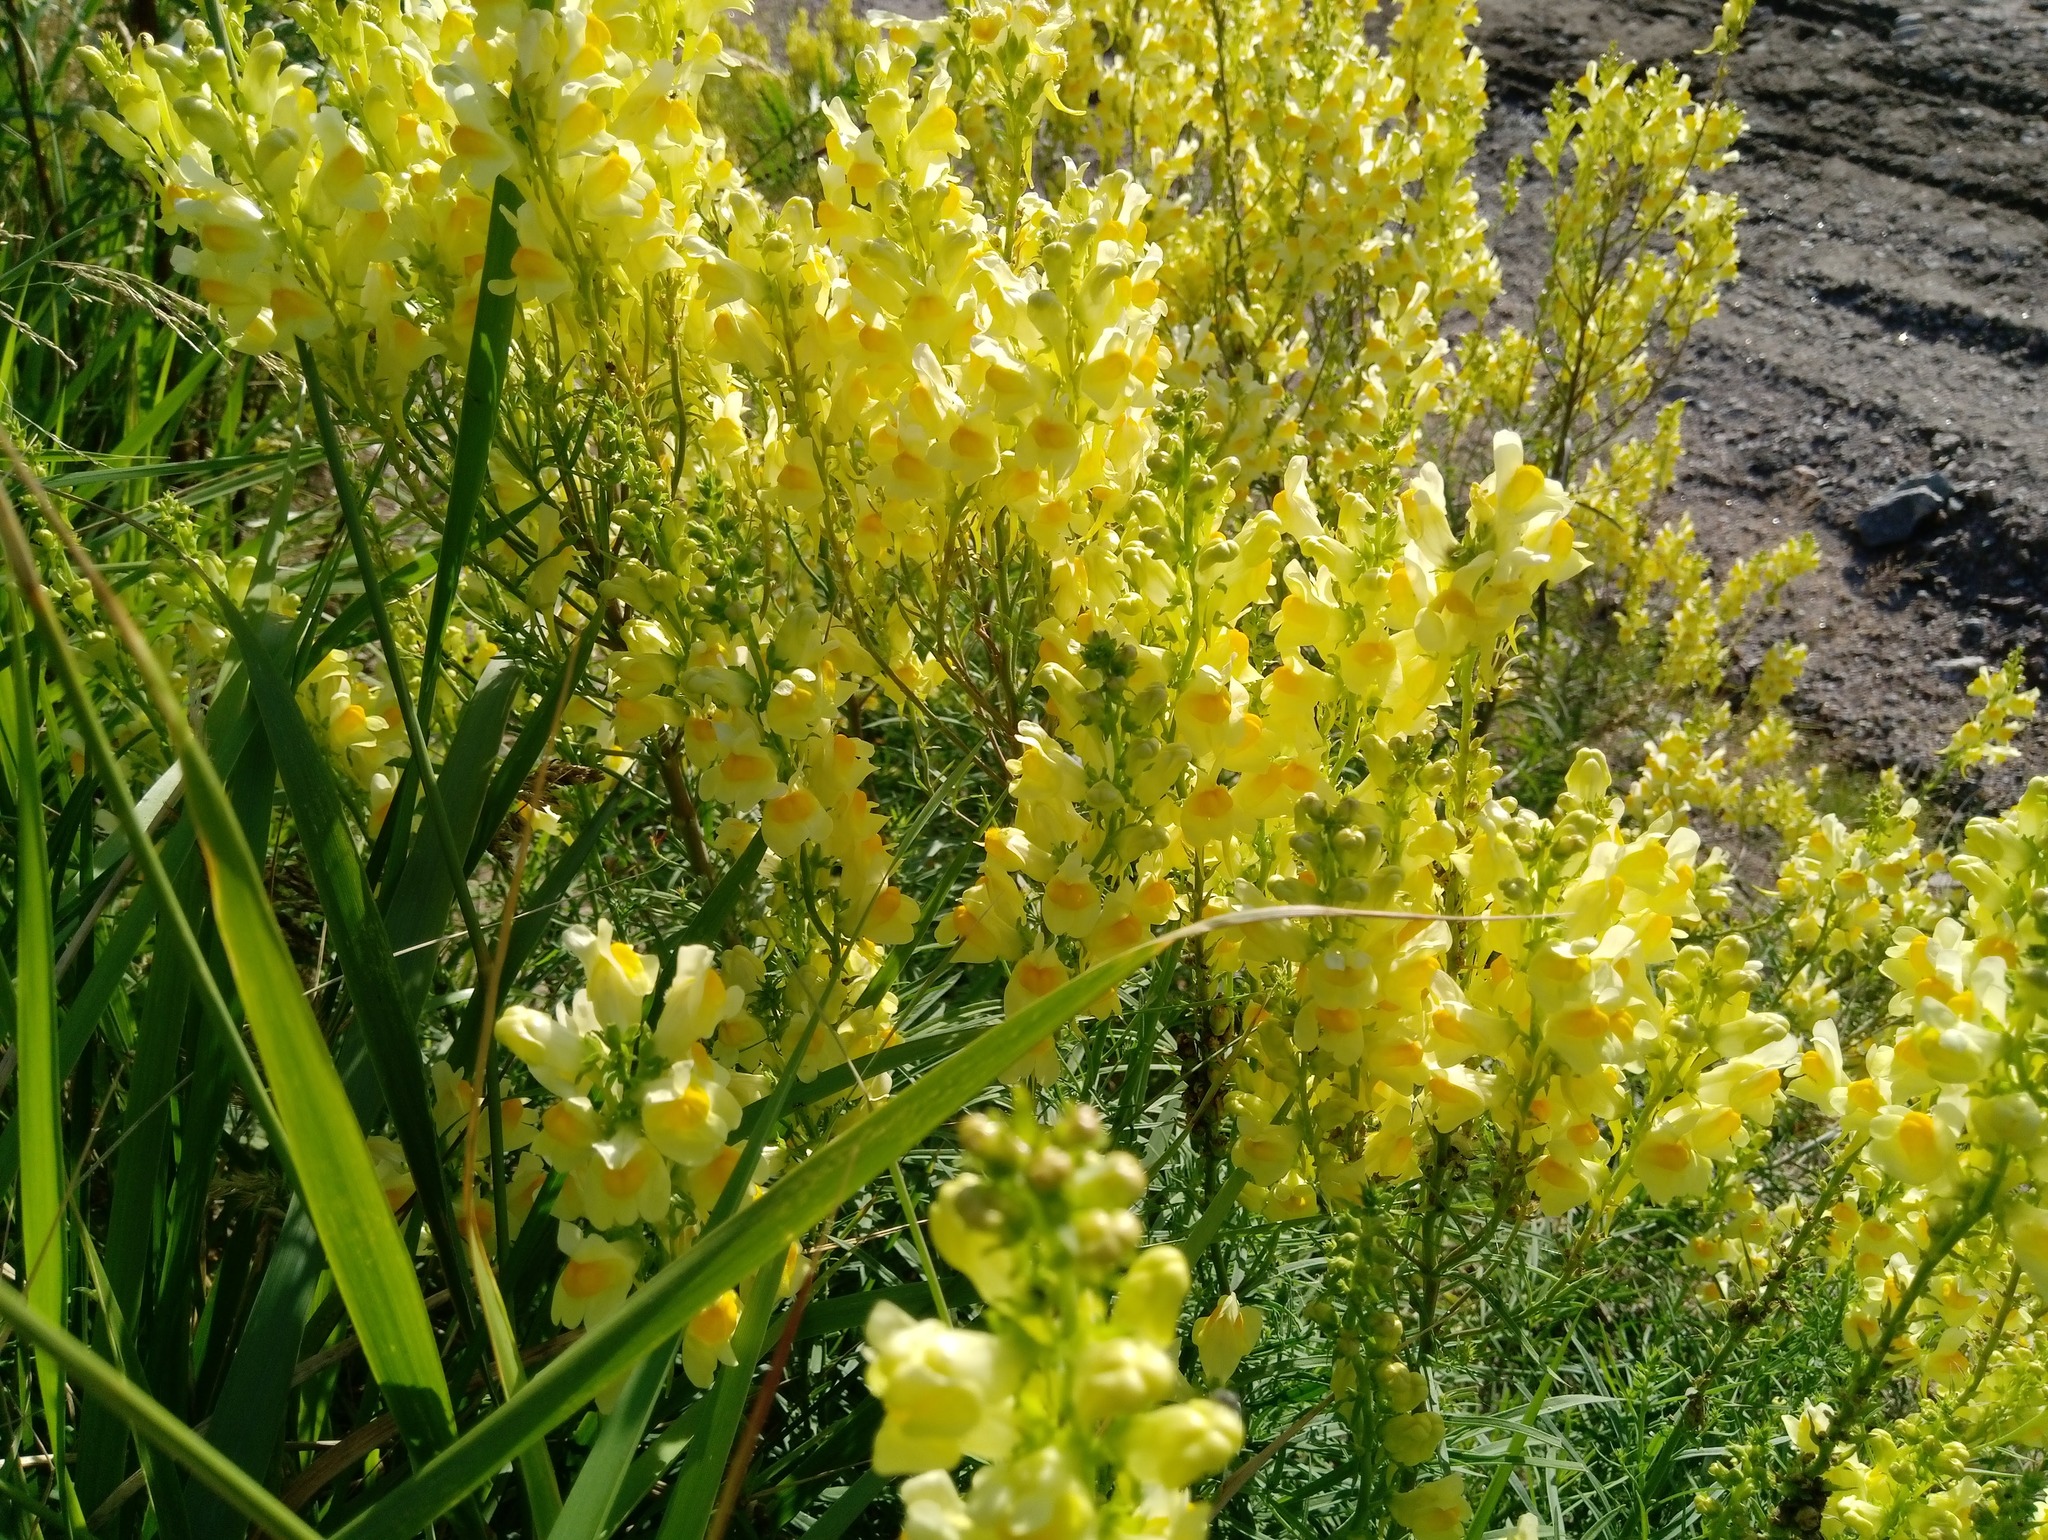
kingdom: Plantae
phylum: Tracheophyta
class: Magnoliopsida
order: Lamiales
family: Plantaginaceae
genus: Linaria
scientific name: Linaria vulgaris
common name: Butter and eggs
